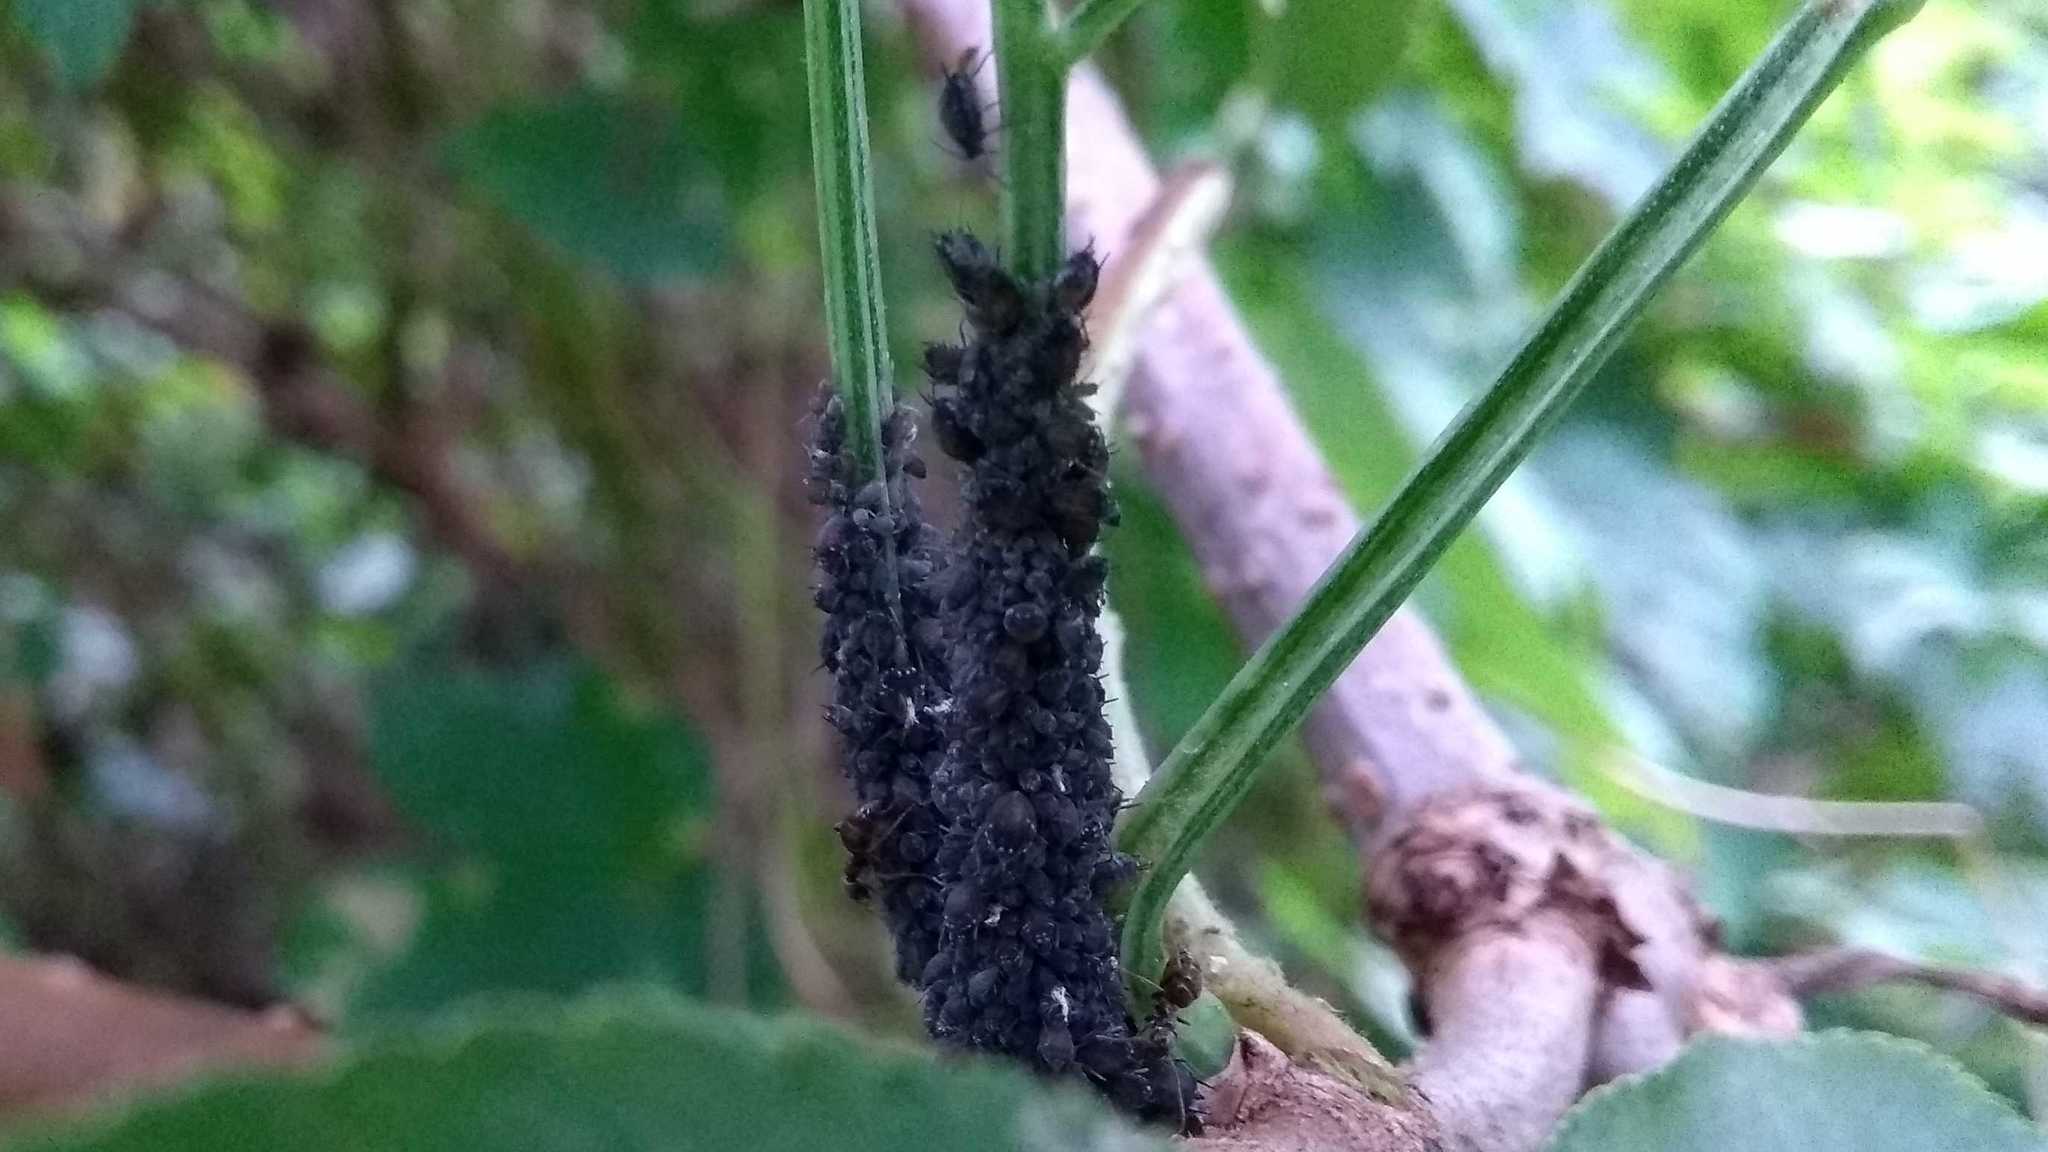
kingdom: Animalia
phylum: Arthropoda
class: Insecta
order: Hymenoptera
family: Formicidae
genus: Lasius
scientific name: Lasius
